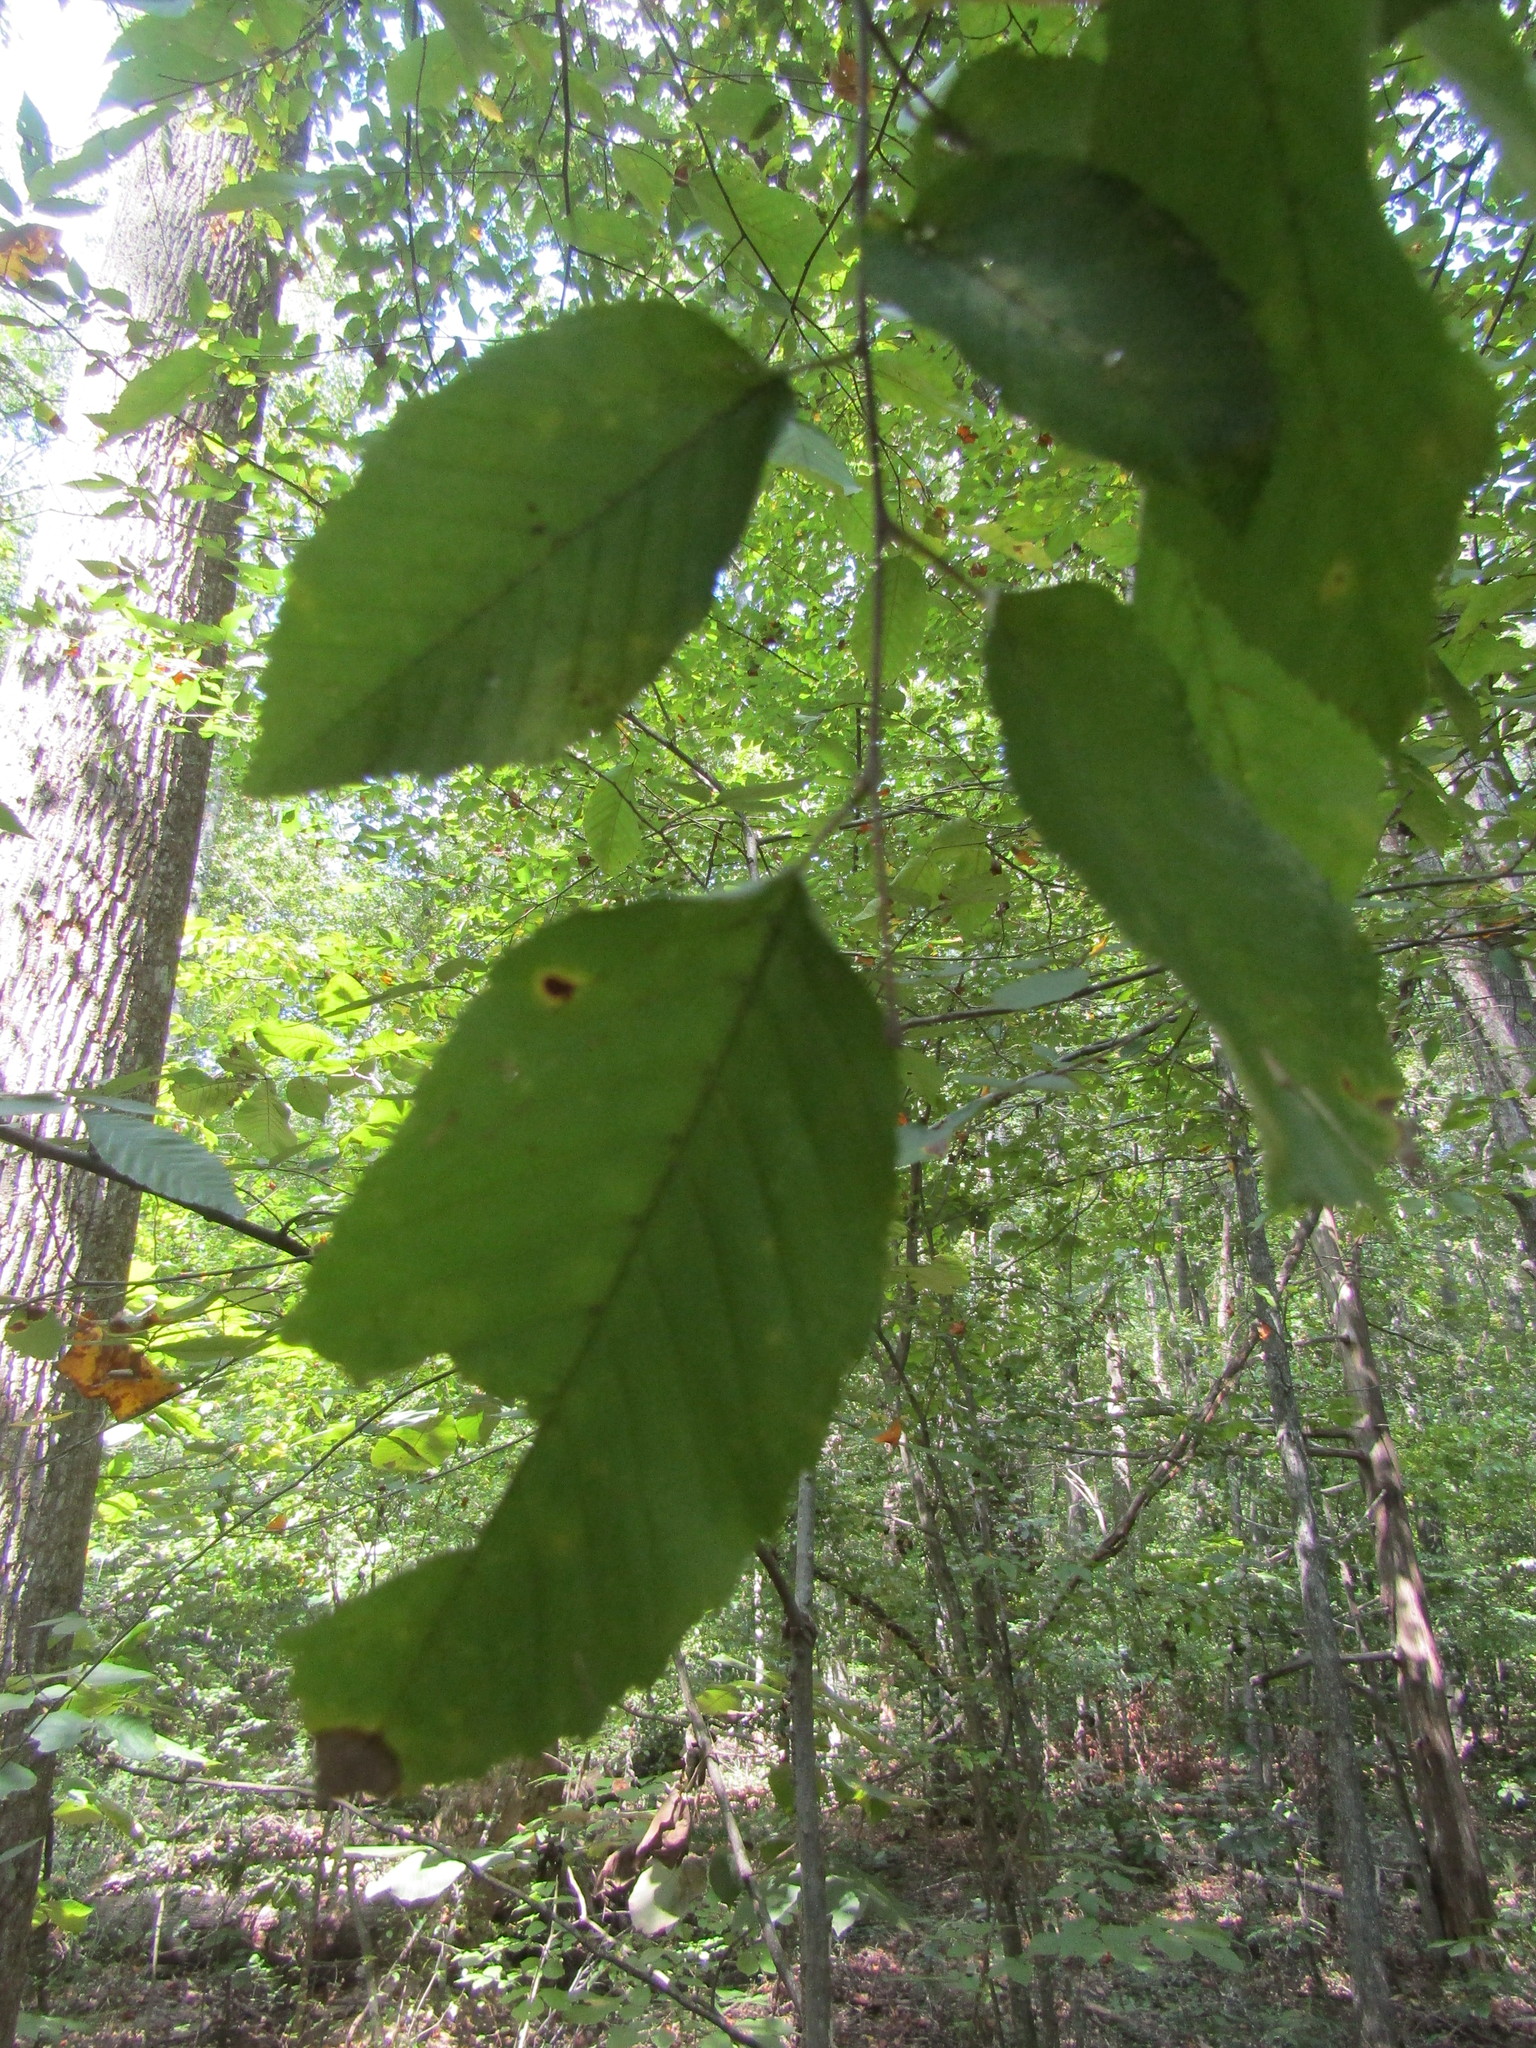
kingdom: Plantae
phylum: Tracheophyta
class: Magnoliopsida
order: Fagales
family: Betulaceae
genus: Carpinus
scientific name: Carpinus caroliniana
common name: American hornbeam
